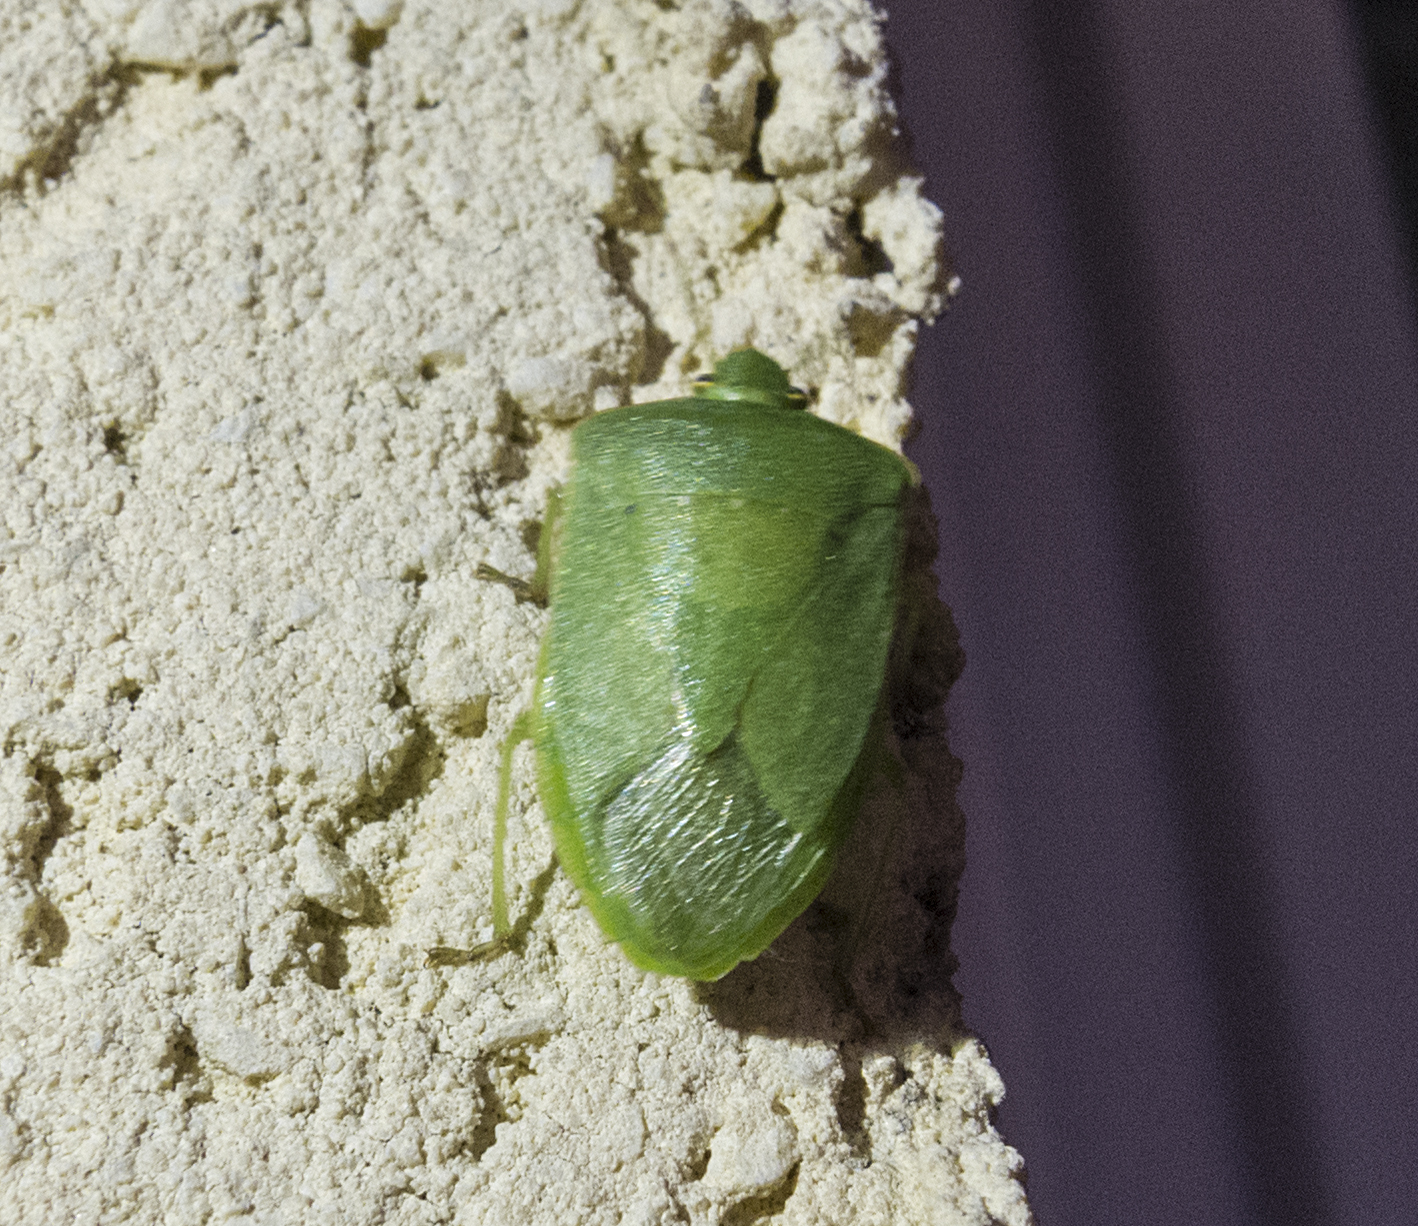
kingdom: Animalia
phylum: Arthropoda
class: Insecta
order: Hemiptera
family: Pentatomidae
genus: Nezara
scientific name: Nezara viridula
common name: Southern green stink bug
